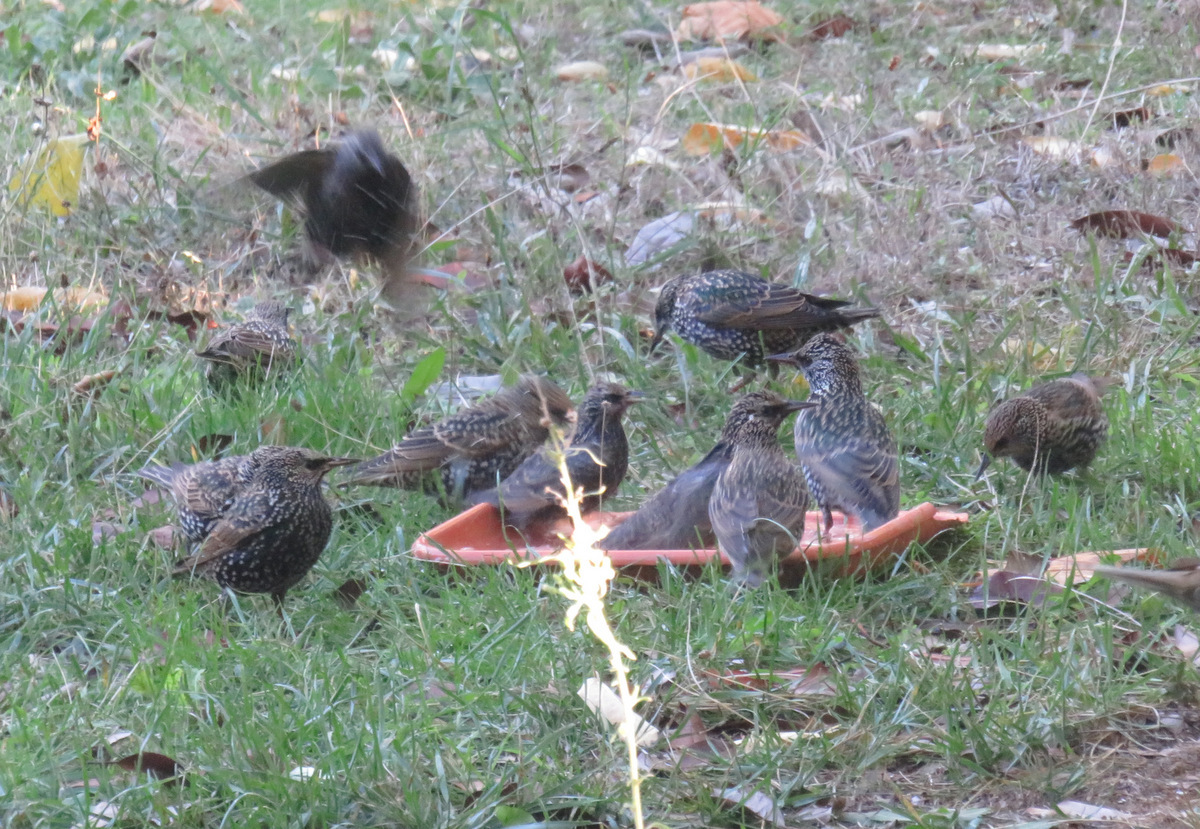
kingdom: Animalia
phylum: Chordata
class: Aves
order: Passeriformes
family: Sturnidae
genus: Sturnus
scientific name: Sturnus vulgaris
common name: Common starling
